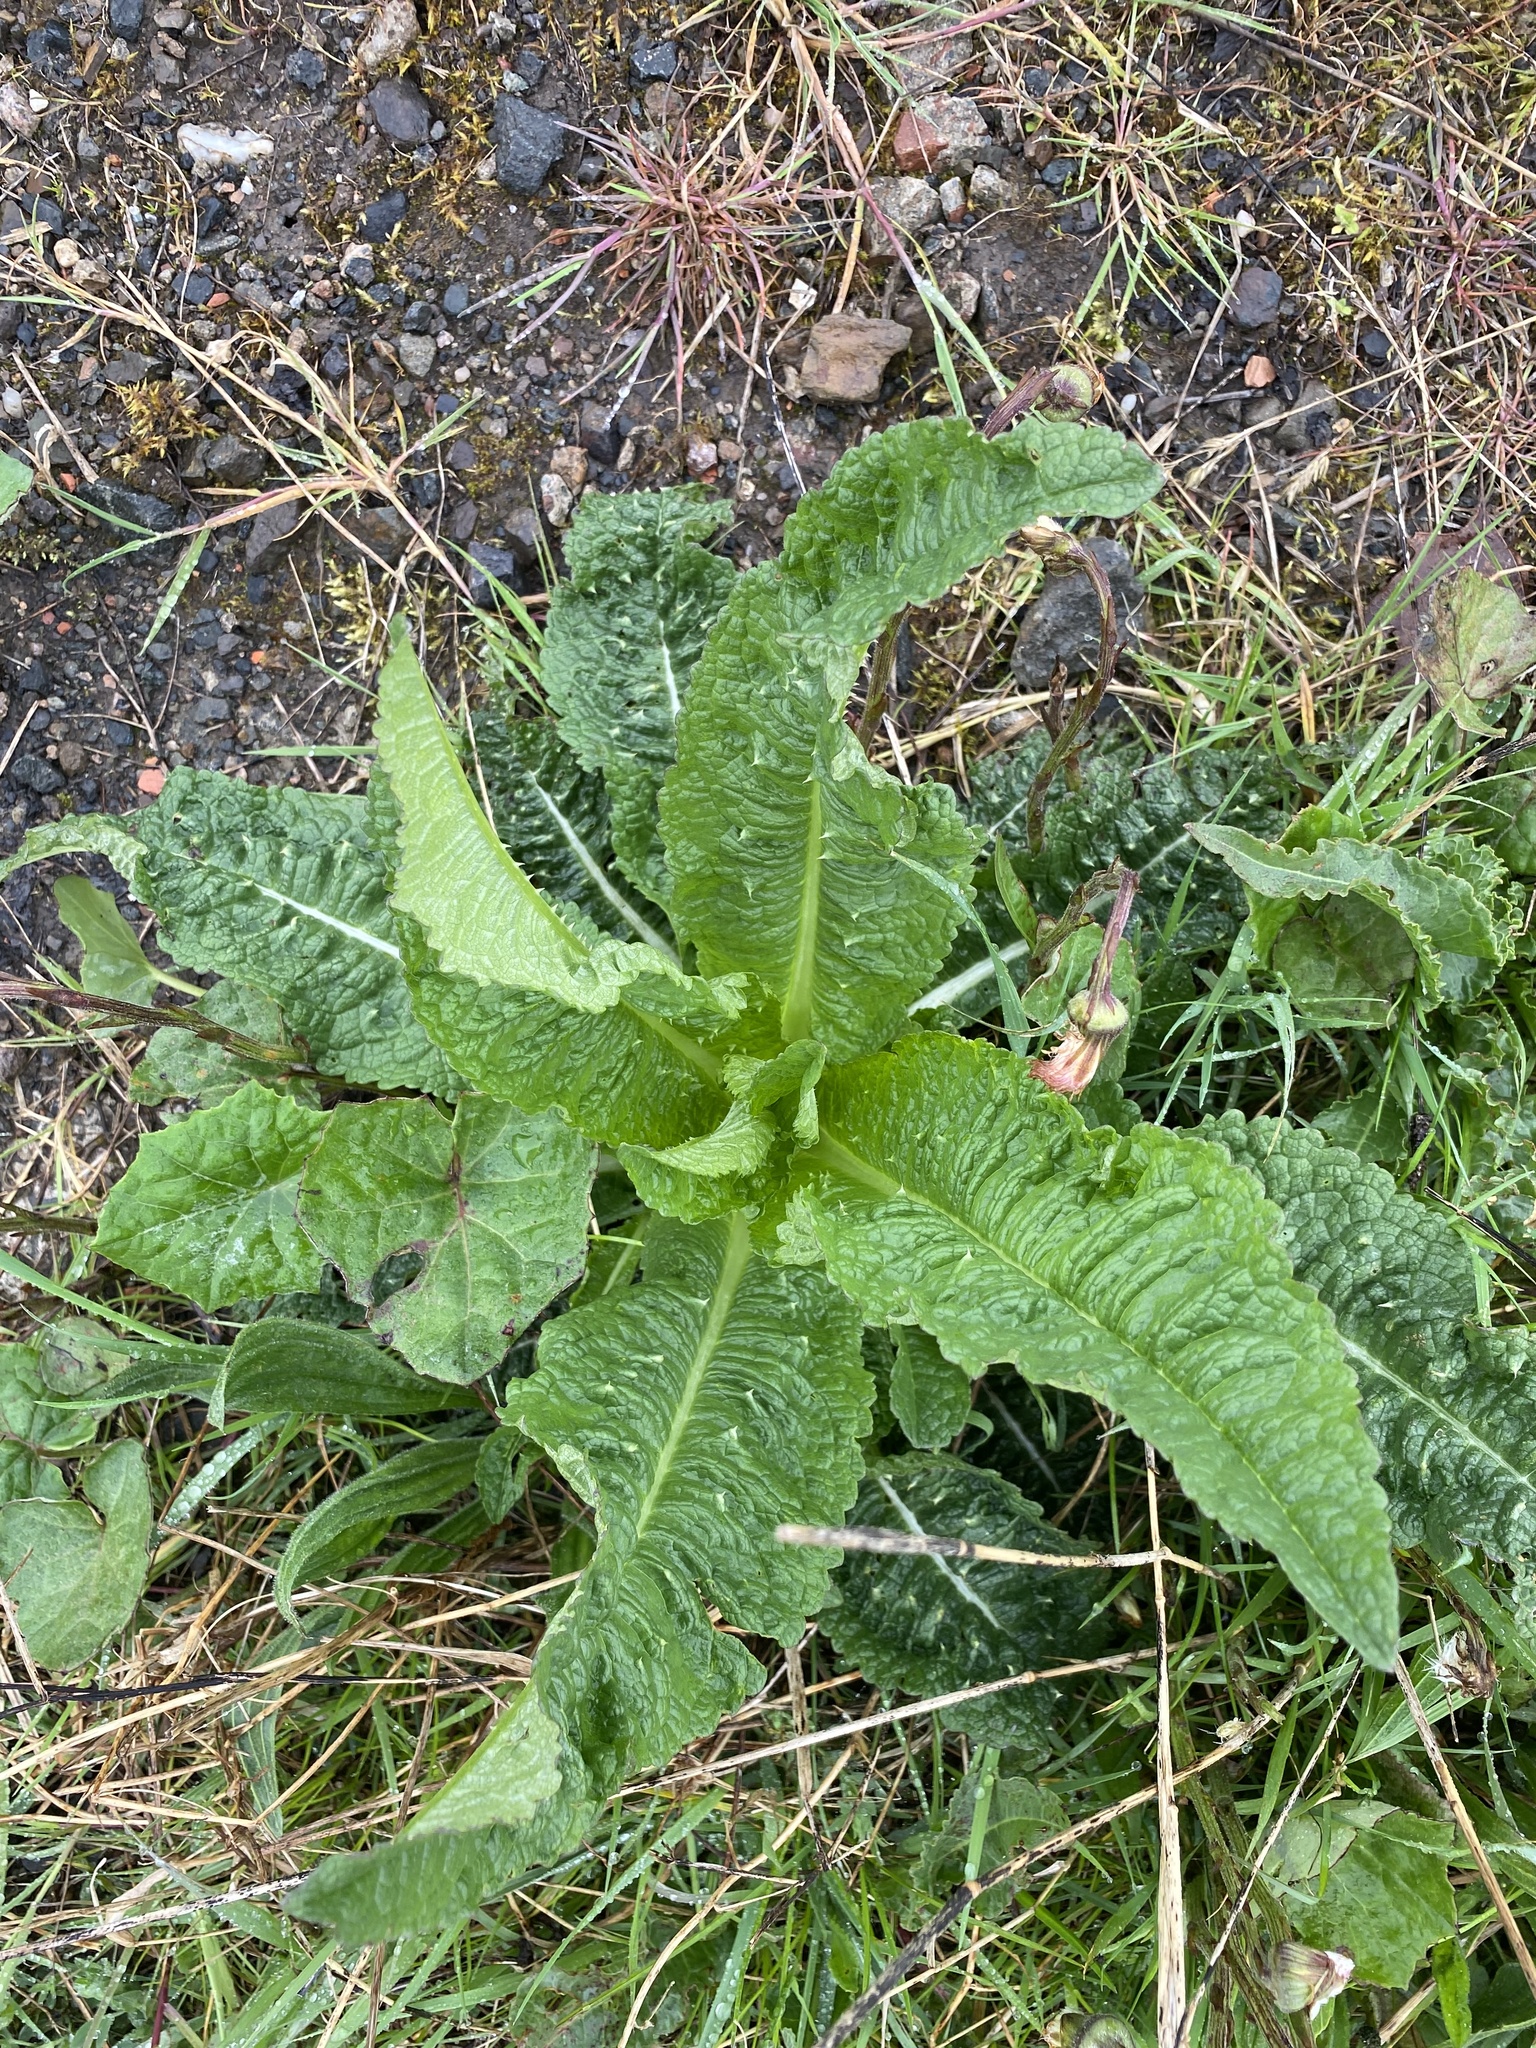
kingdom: Plantae
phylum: Tracheophyta
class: Magnoliopsida
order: Dipsacales
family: Caprifoliaceae
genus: Dipsacus
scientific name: Dipsacus fullonum
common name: Teasel
